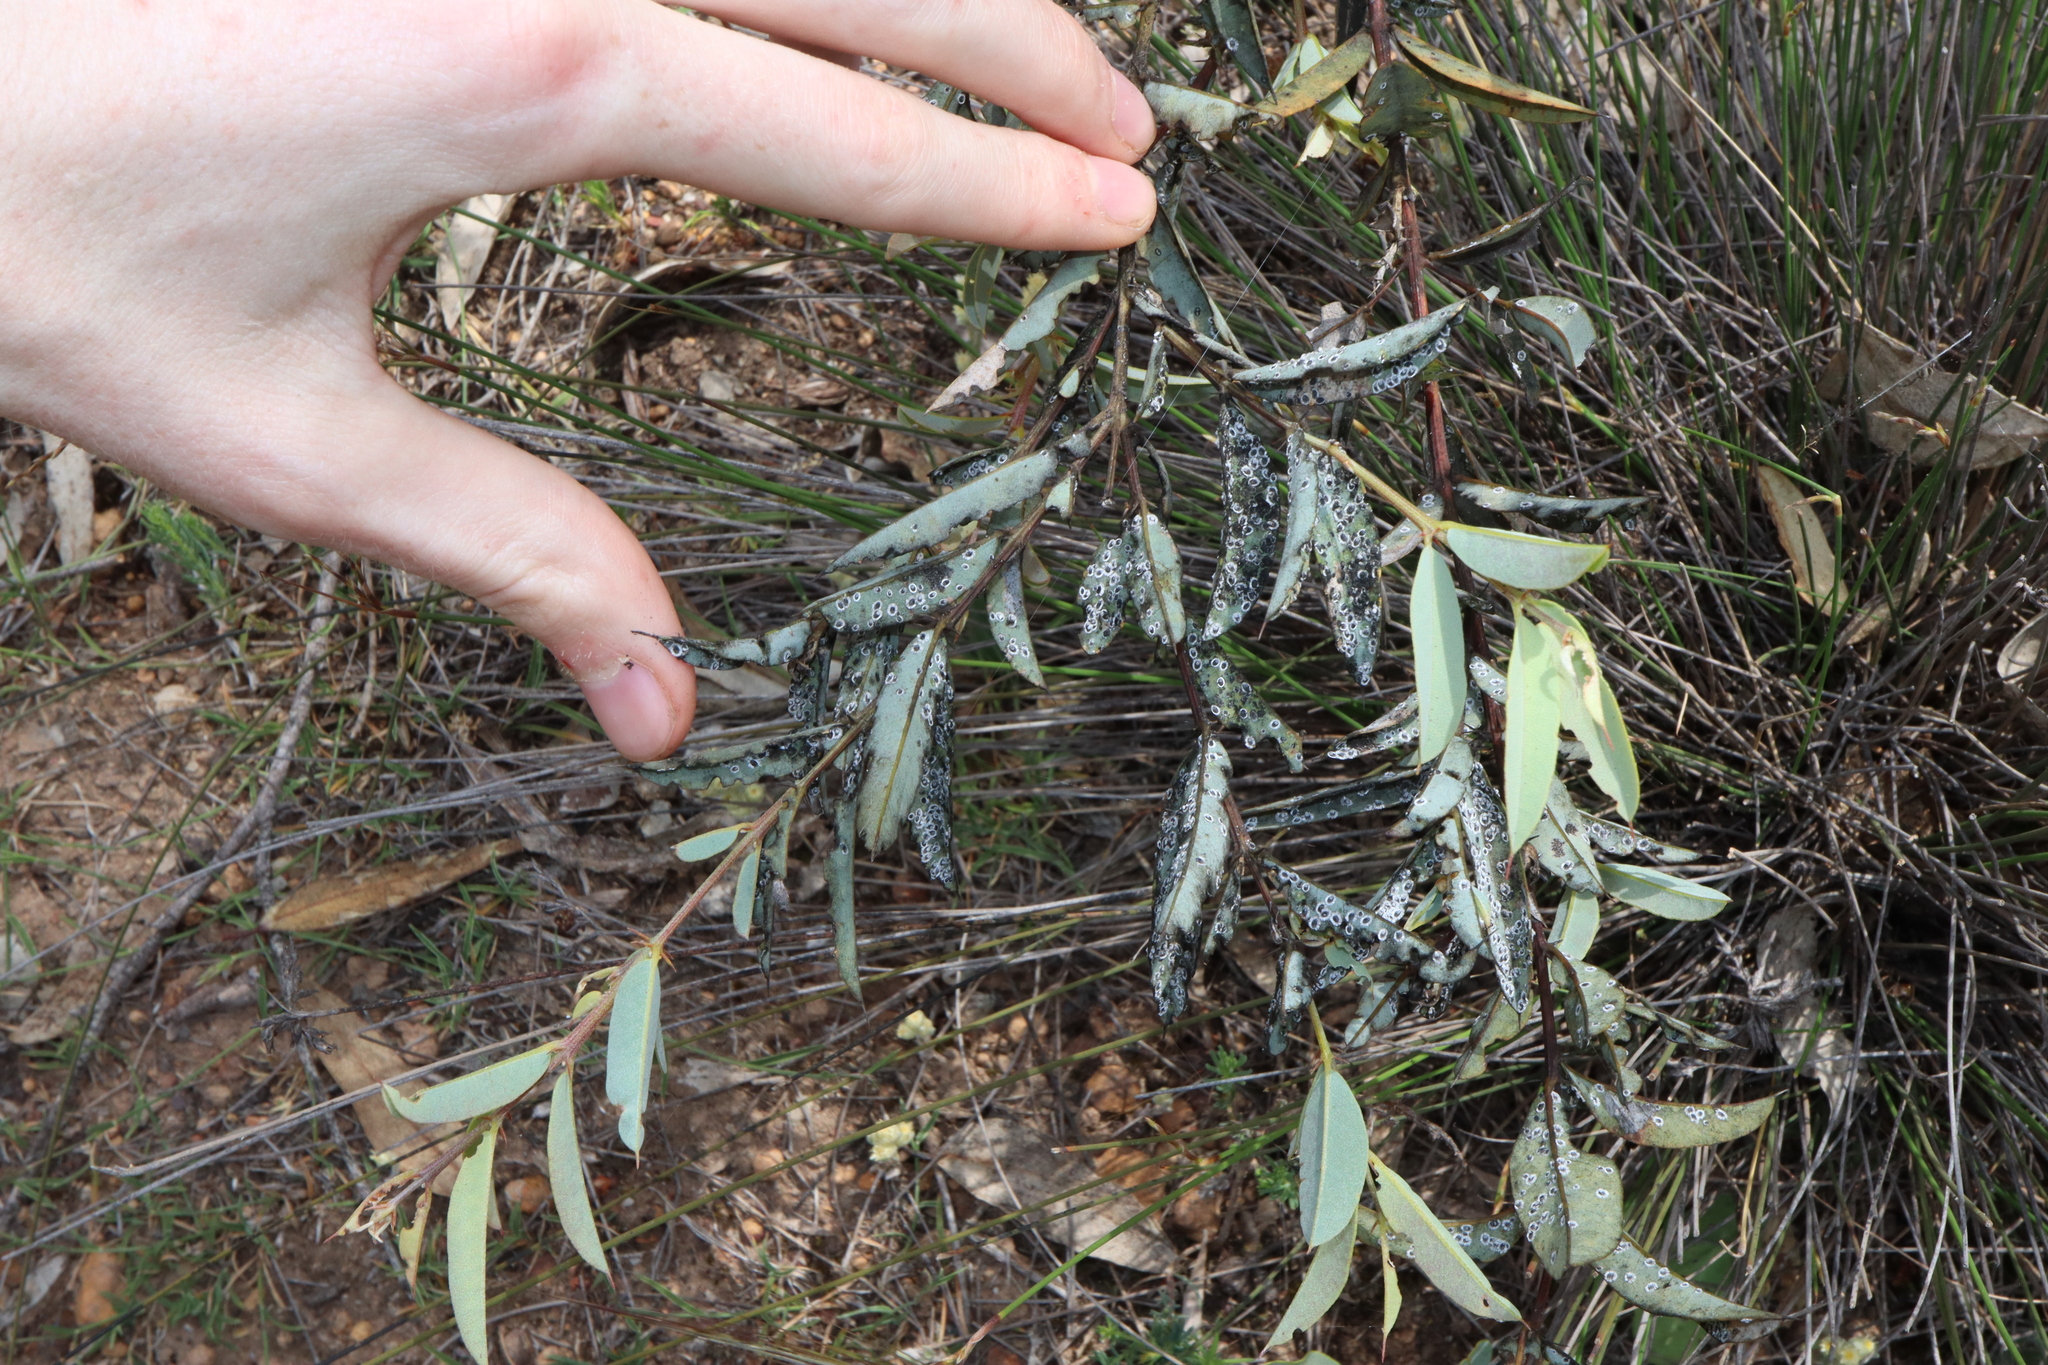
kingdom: Plantae
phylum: Tracheophyta
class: Magnoliopsida
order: Fabales
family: Fabaceae
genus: Gastrolobium
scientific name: Gastrolobium calycinum
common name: York road poison
